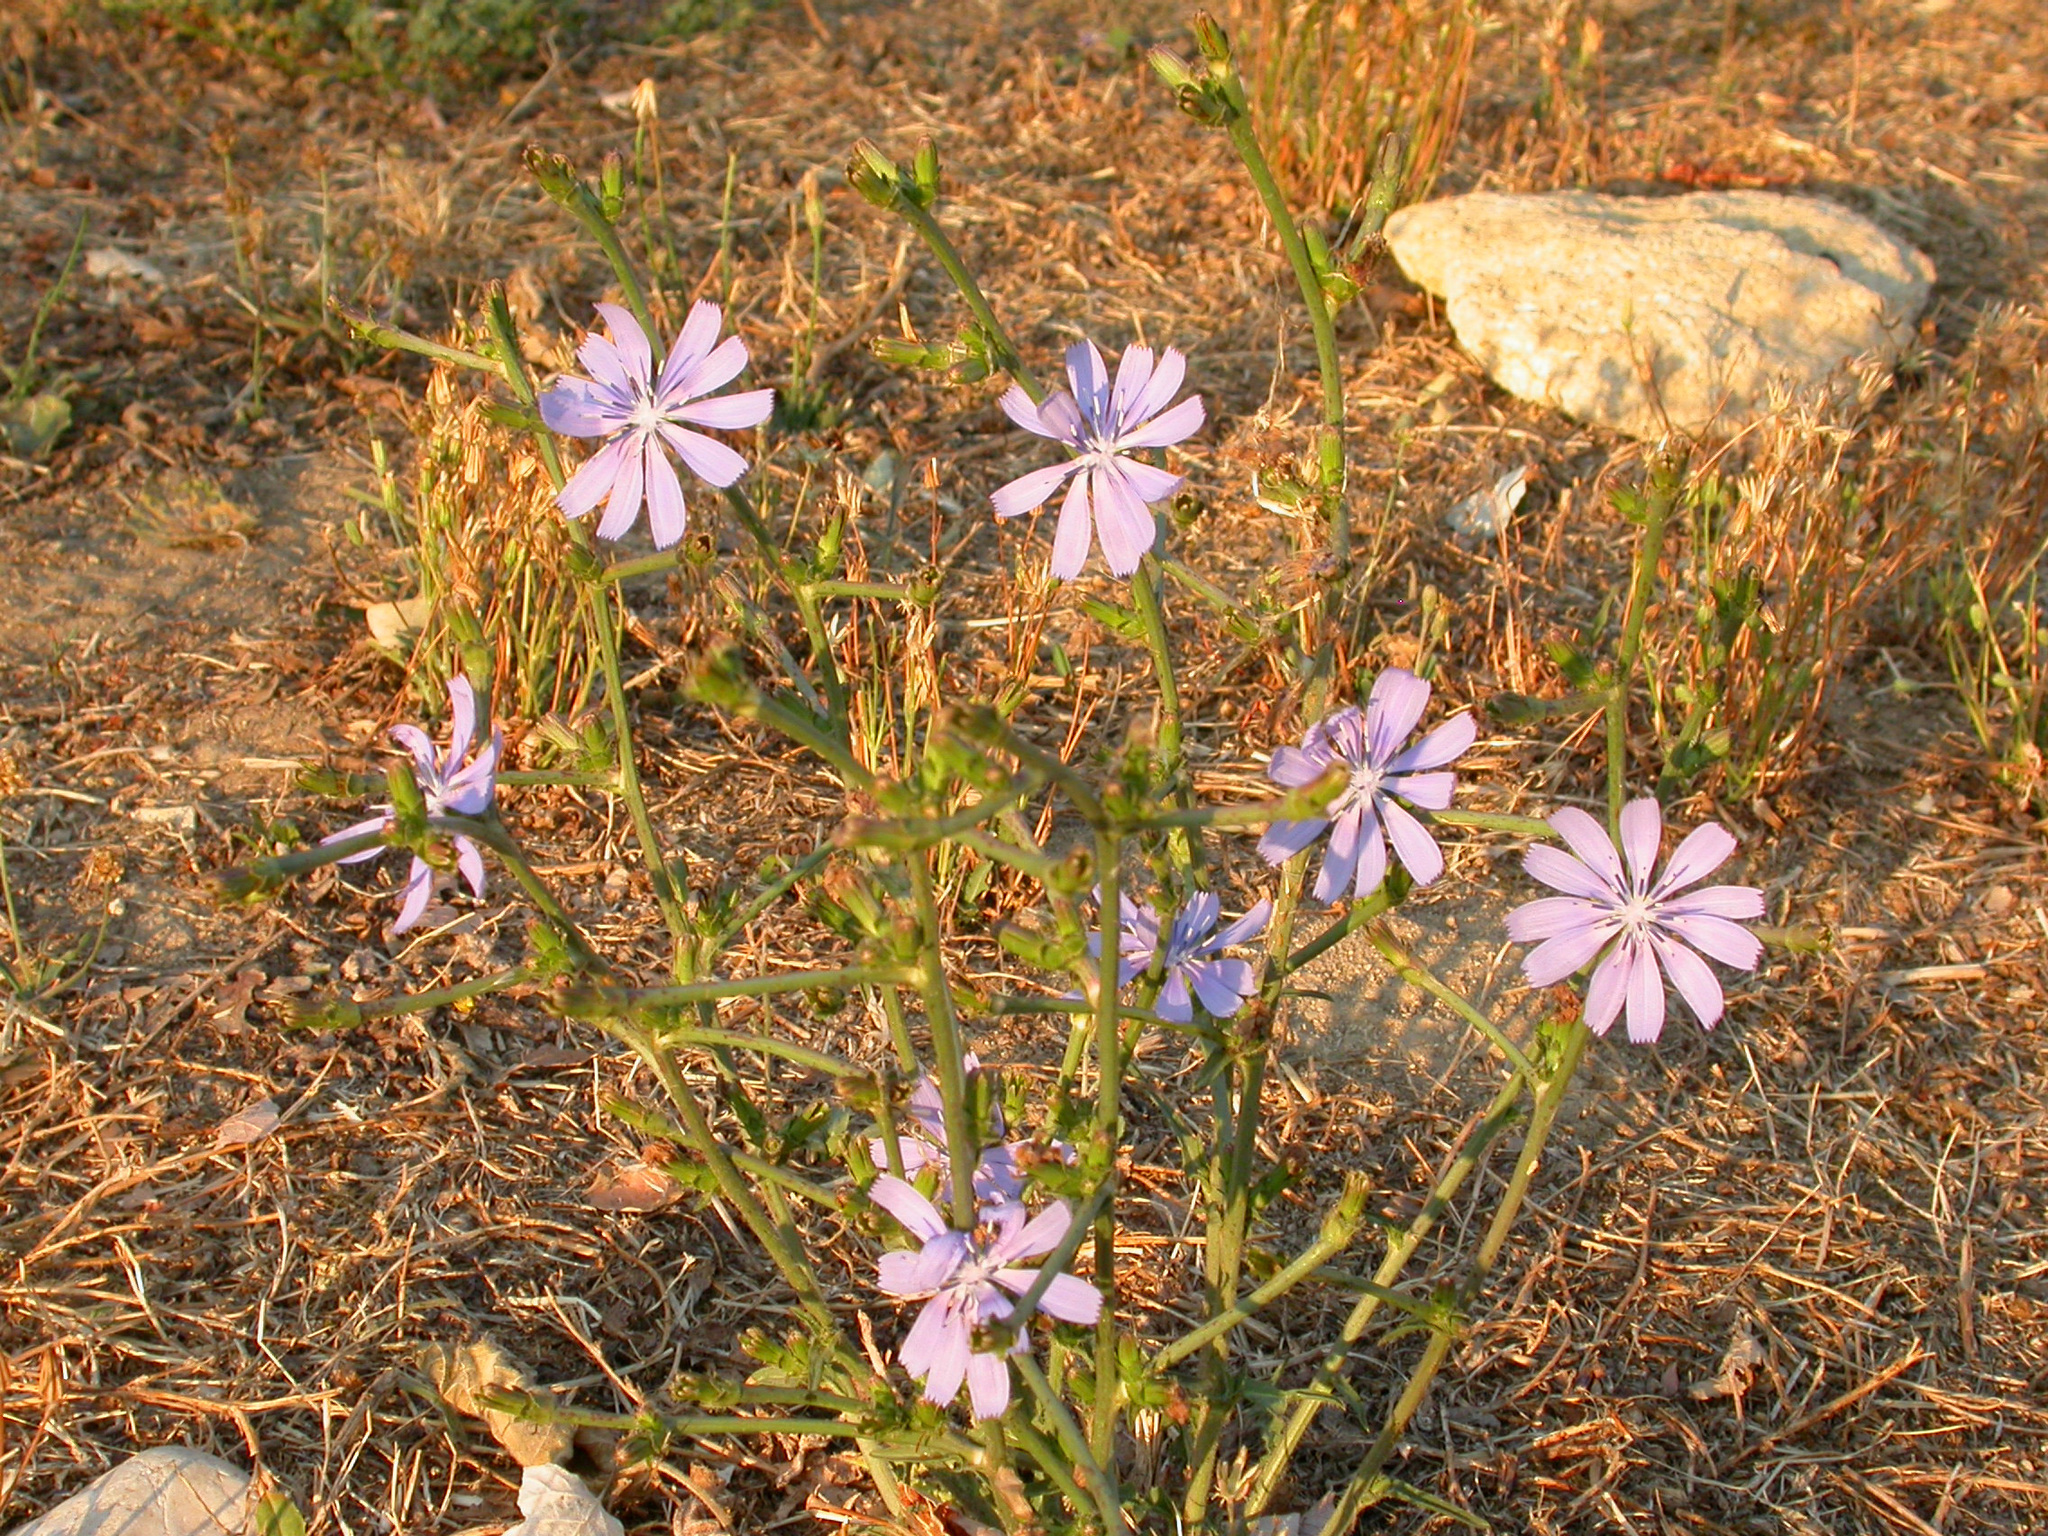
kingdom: Plantae
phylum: Tracheophyta
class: Magnoliopsida
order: Asterales
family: Asteraceae
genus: Cichorium
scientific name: Cichorium intybus
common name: Chicory
